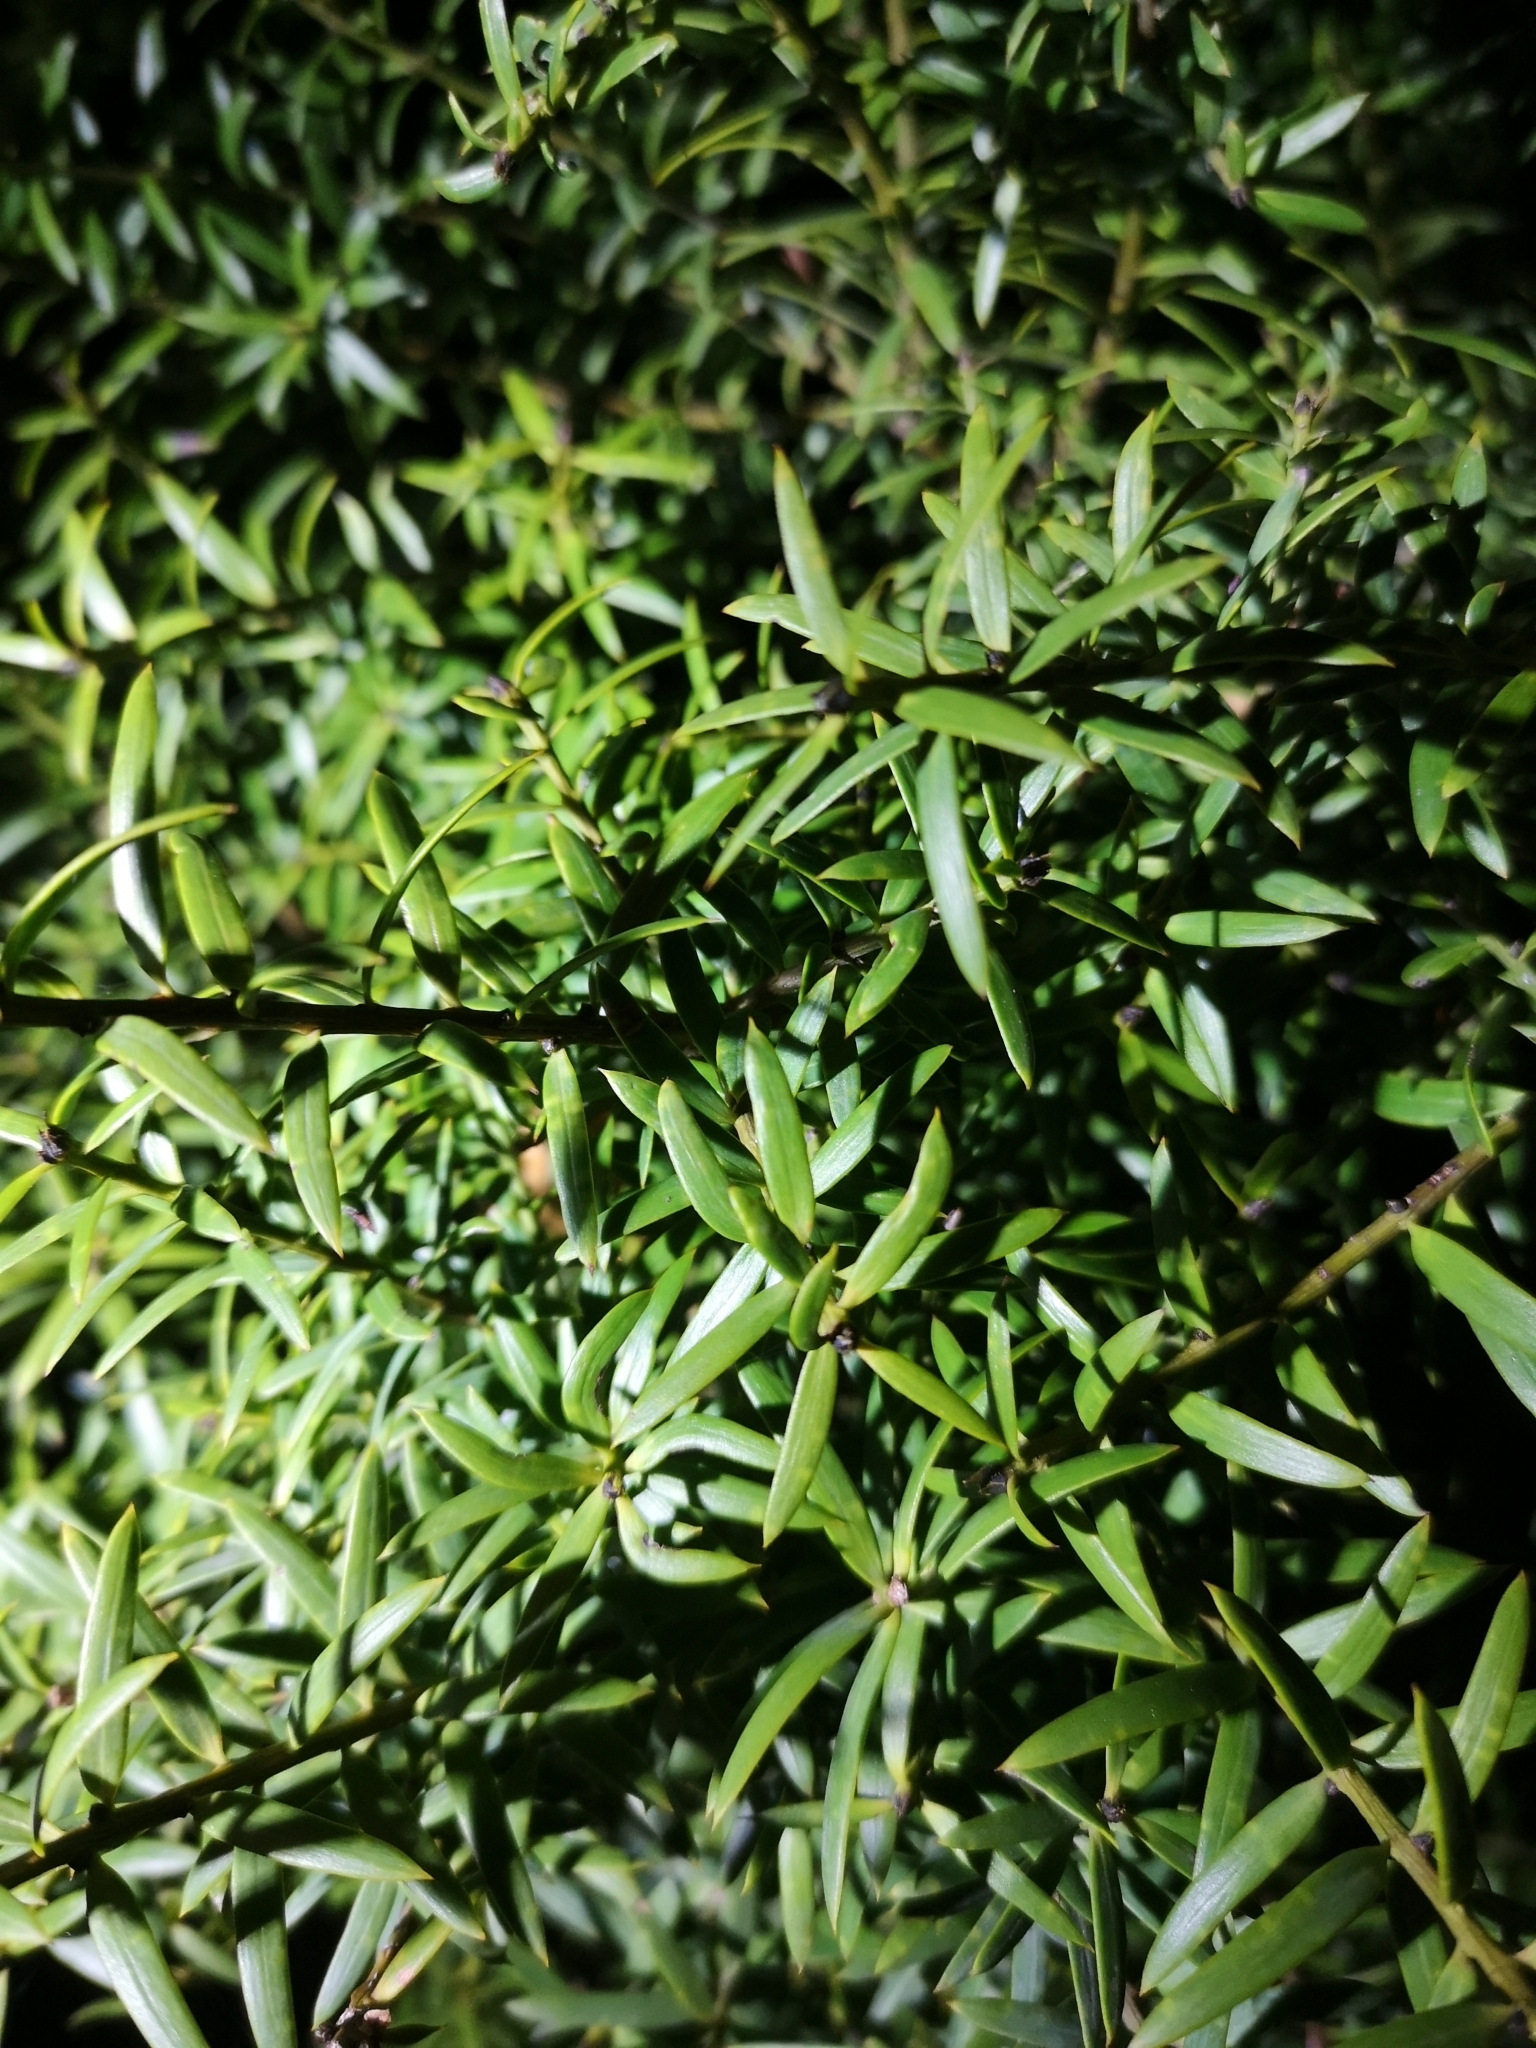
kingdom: Plantae
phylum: Tracheophyta
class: Pinopsida
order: Pinales
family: Podocarpaceae
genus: Podocarpus
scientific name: Podocarpus totara
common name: Totara
